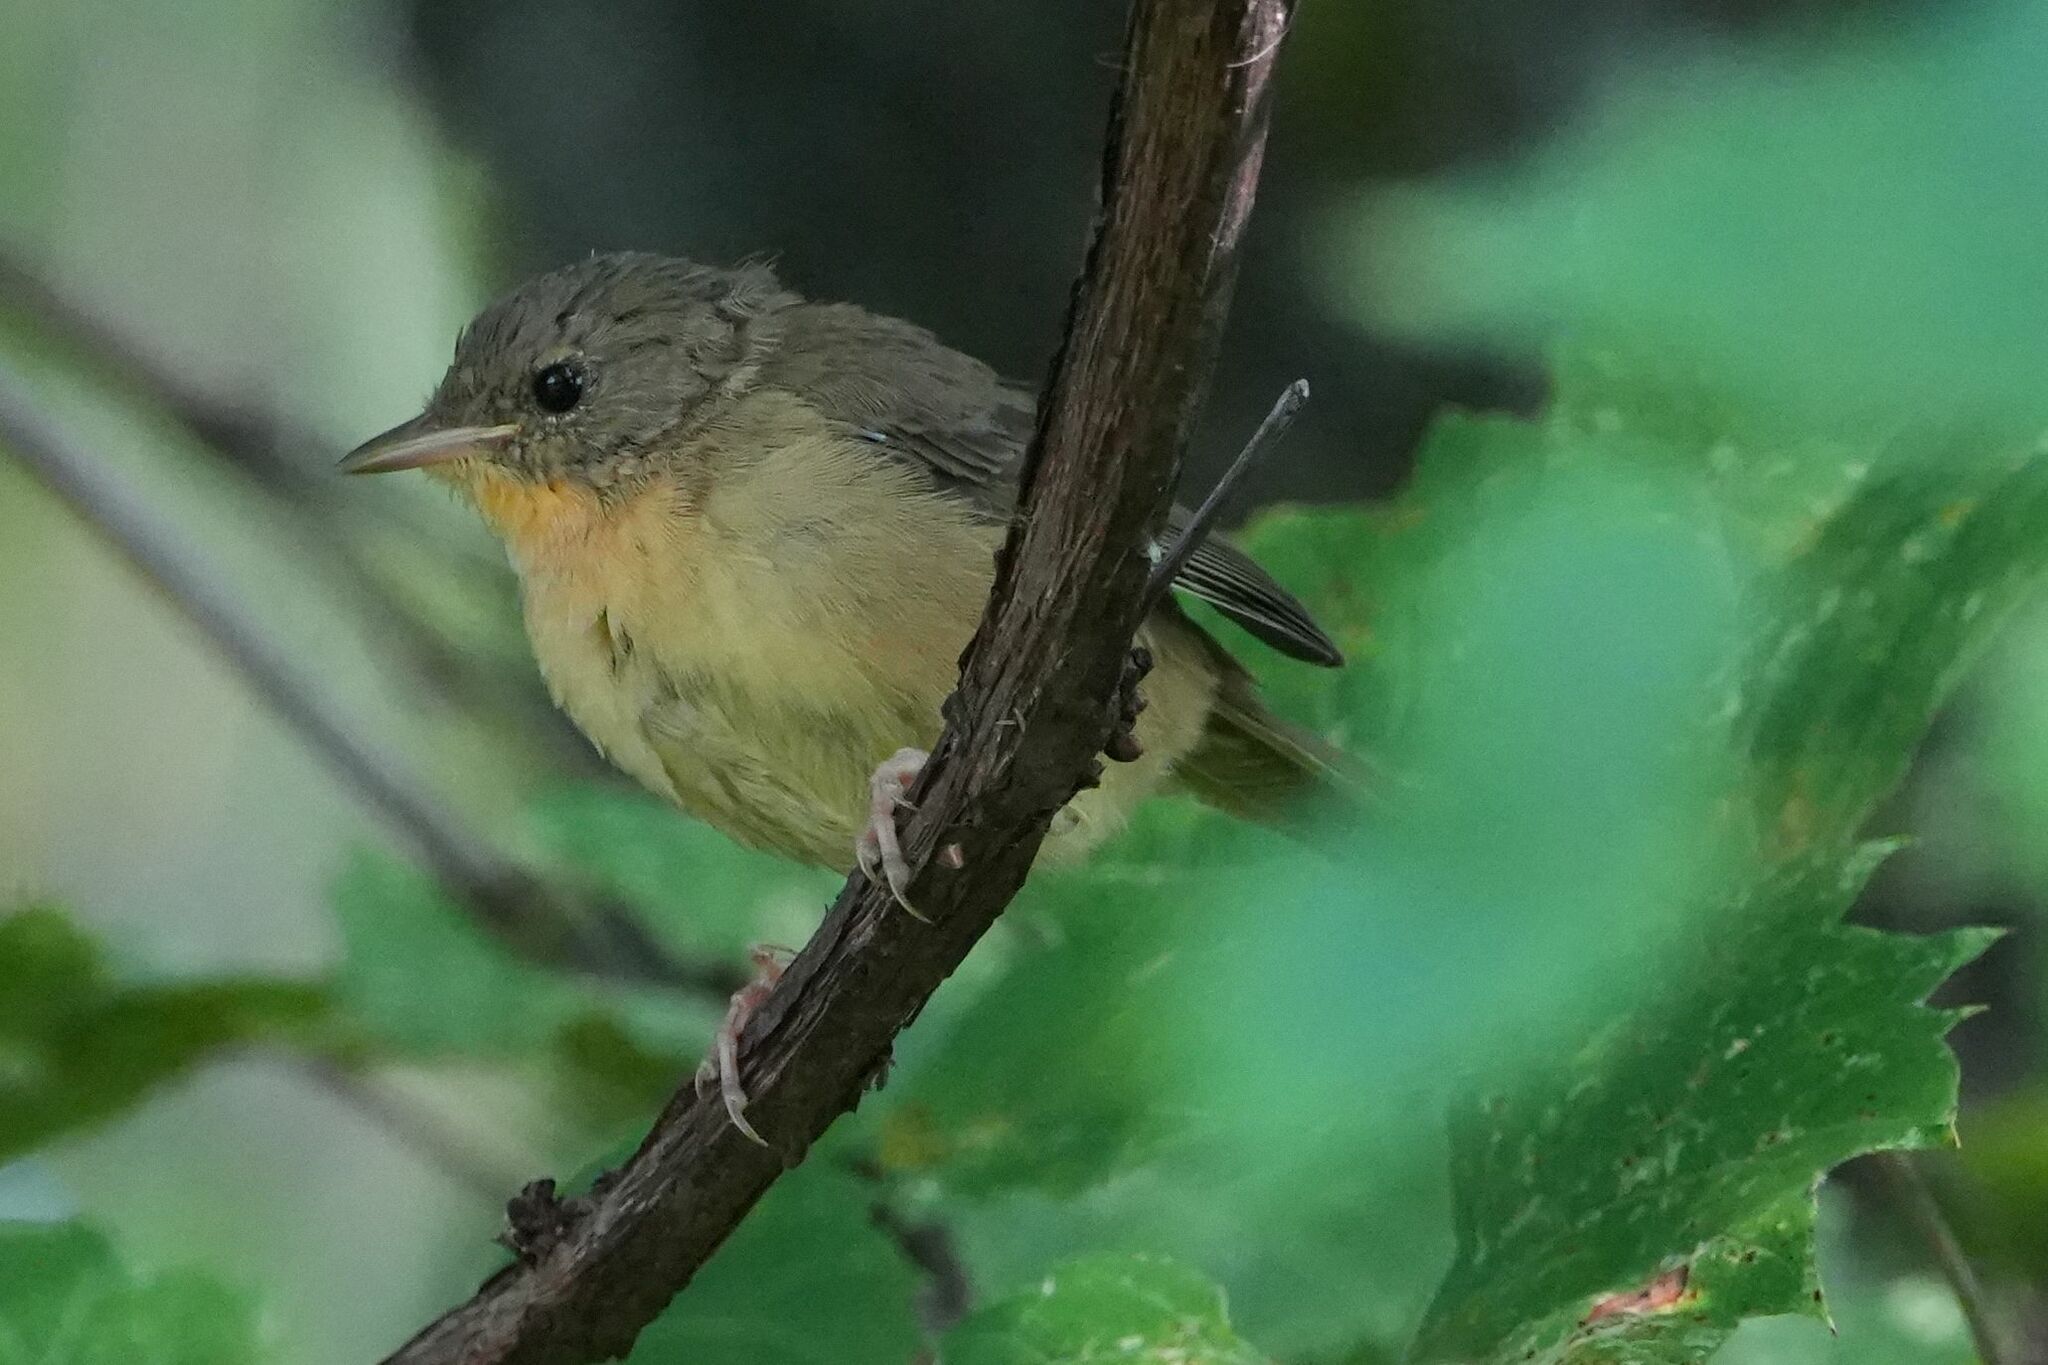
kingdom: Animalia
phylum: Chordata
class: Aves
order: Passeriformes
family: Parulidae
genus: Geothlypis
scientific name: Geothlypis trichas
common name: Common yellowthroat
